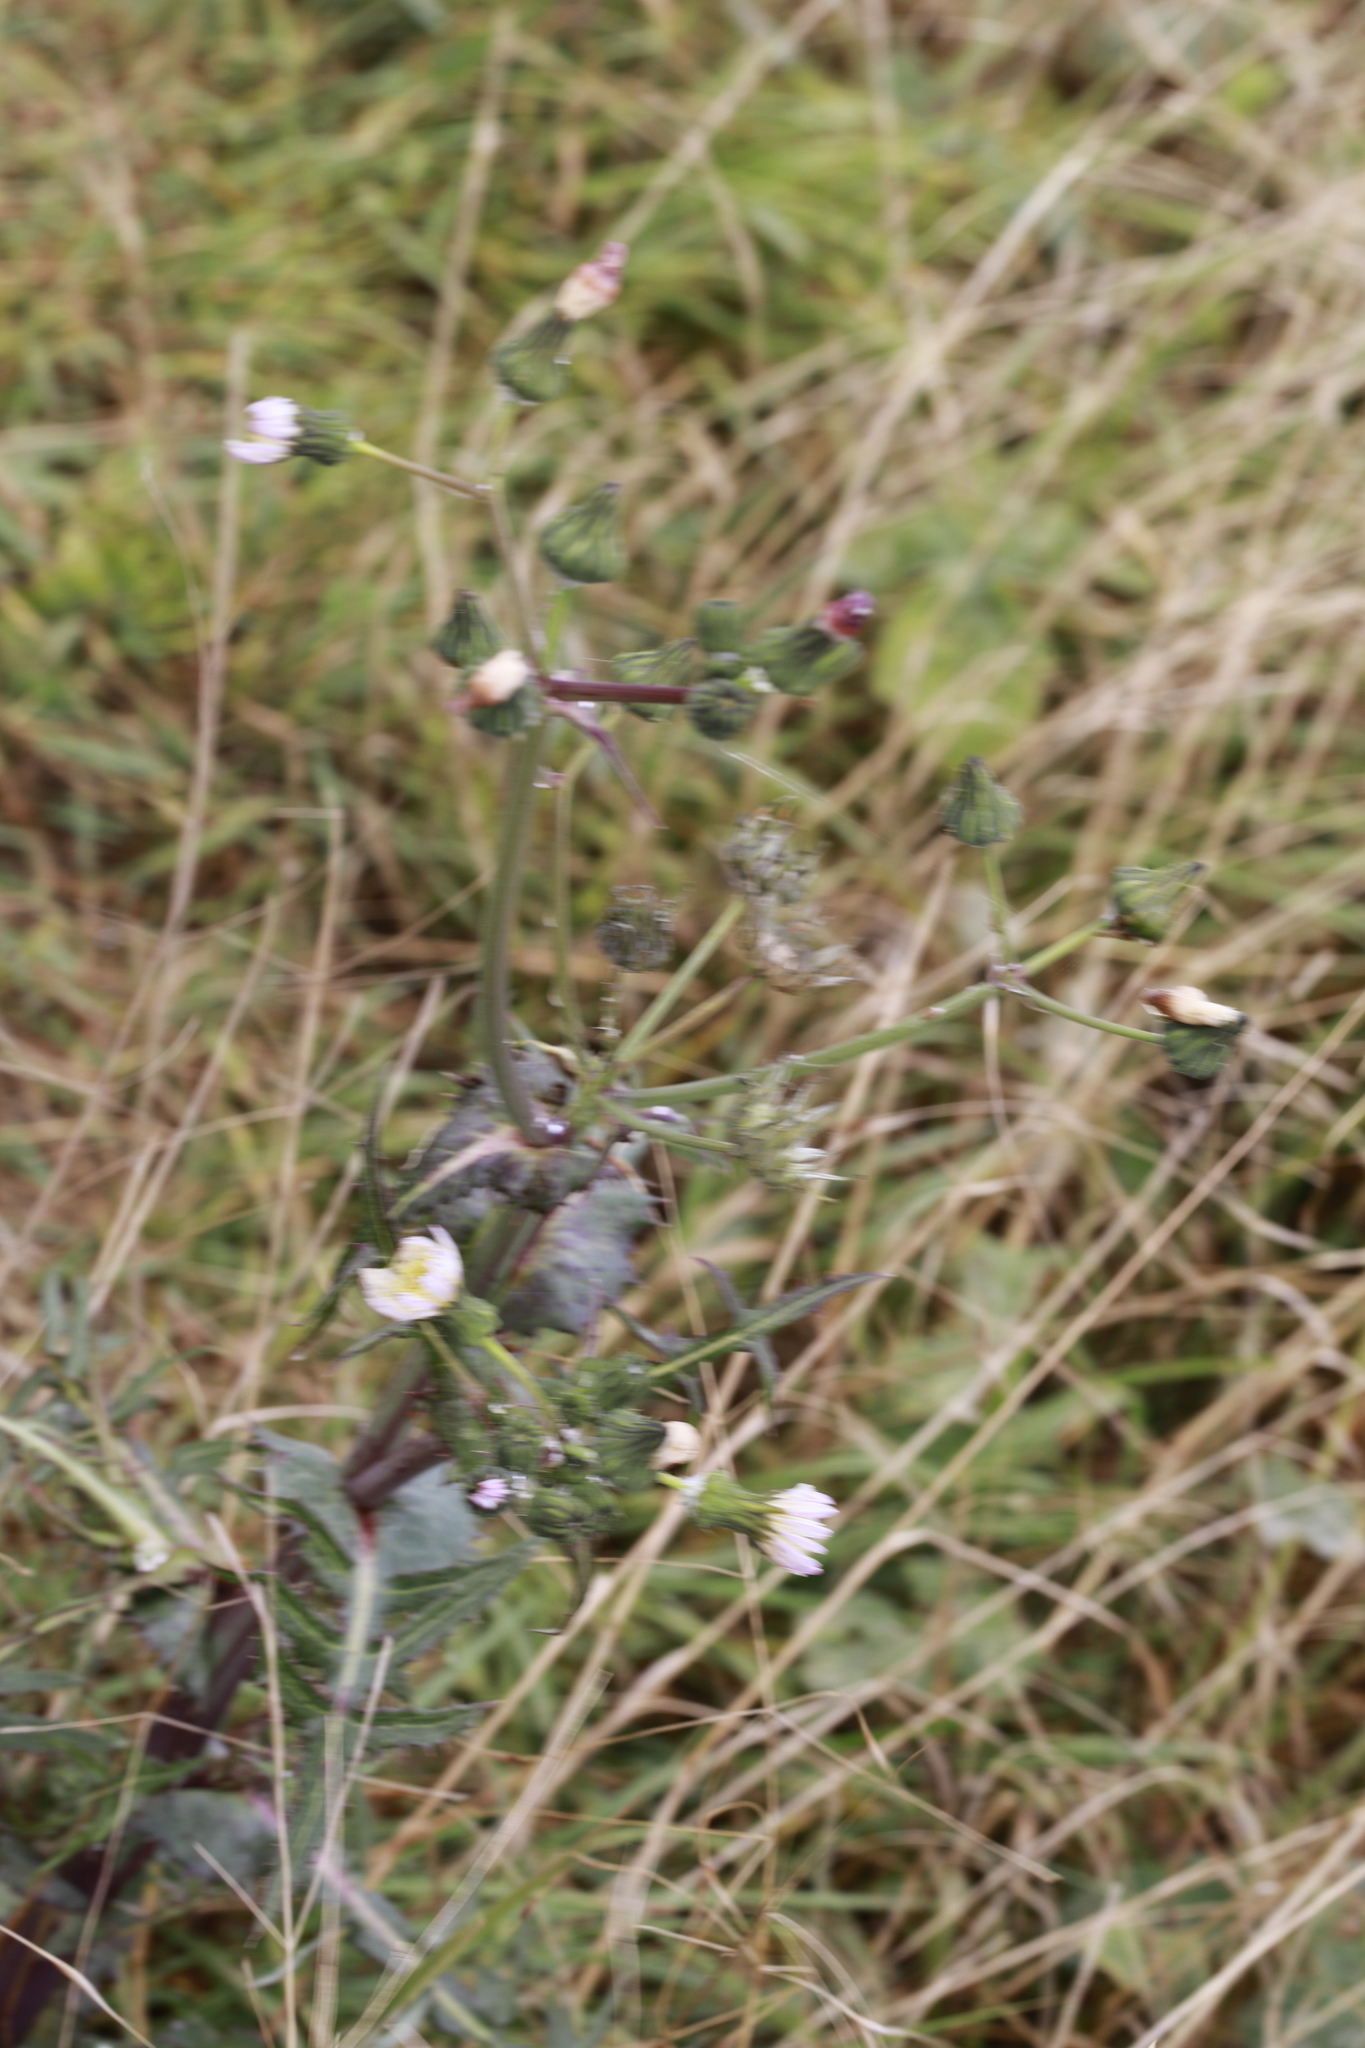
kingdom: Plantae
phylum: Tracheophyta
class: Magnoliopsida
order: Asterales
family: Asteraceae
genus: Sonchus
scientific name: Sonchus oleraceus
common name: Common sowthistle
